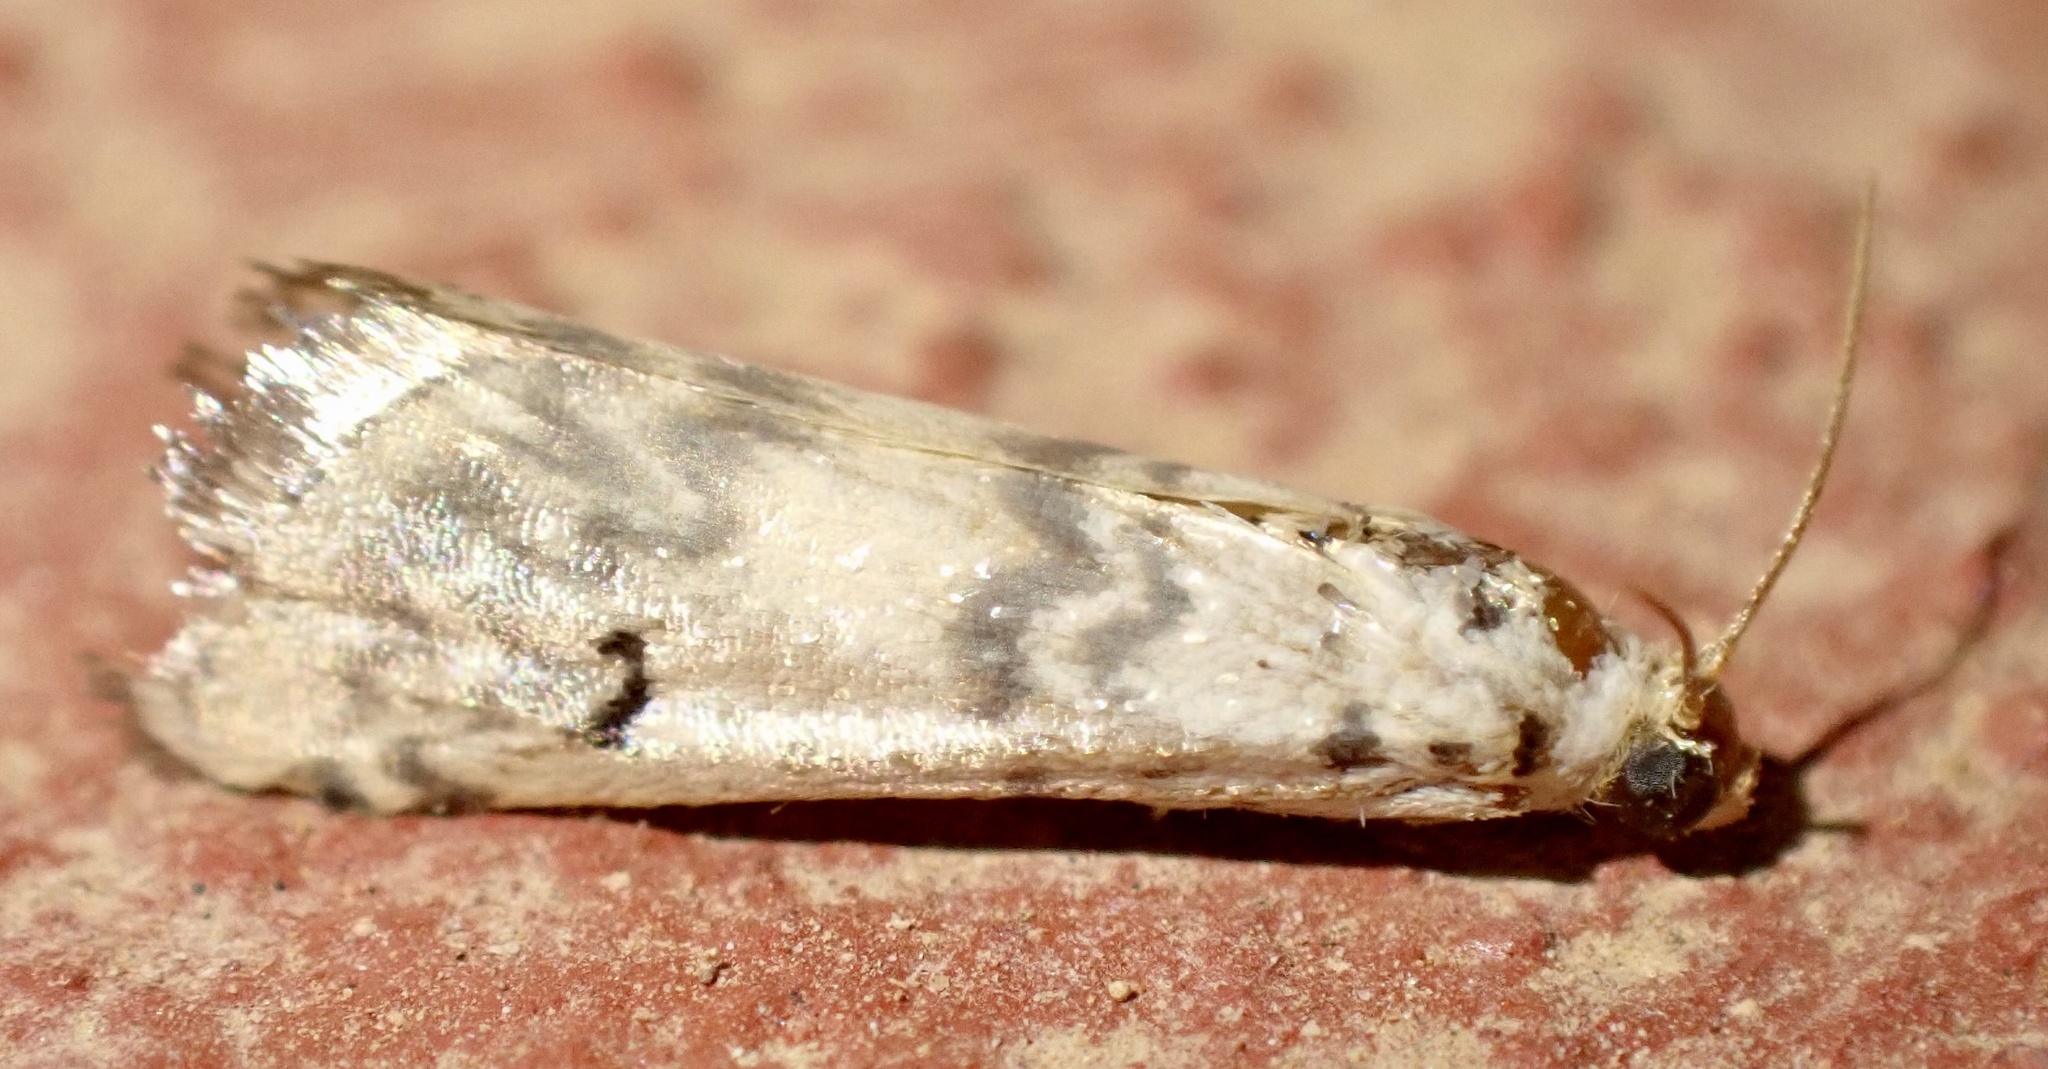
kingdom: Animalia
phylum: Arthropoda
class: Insecta
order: Lepidoptera
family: Pyralidae
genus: Euzophera
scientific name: Euzophera lunulella
